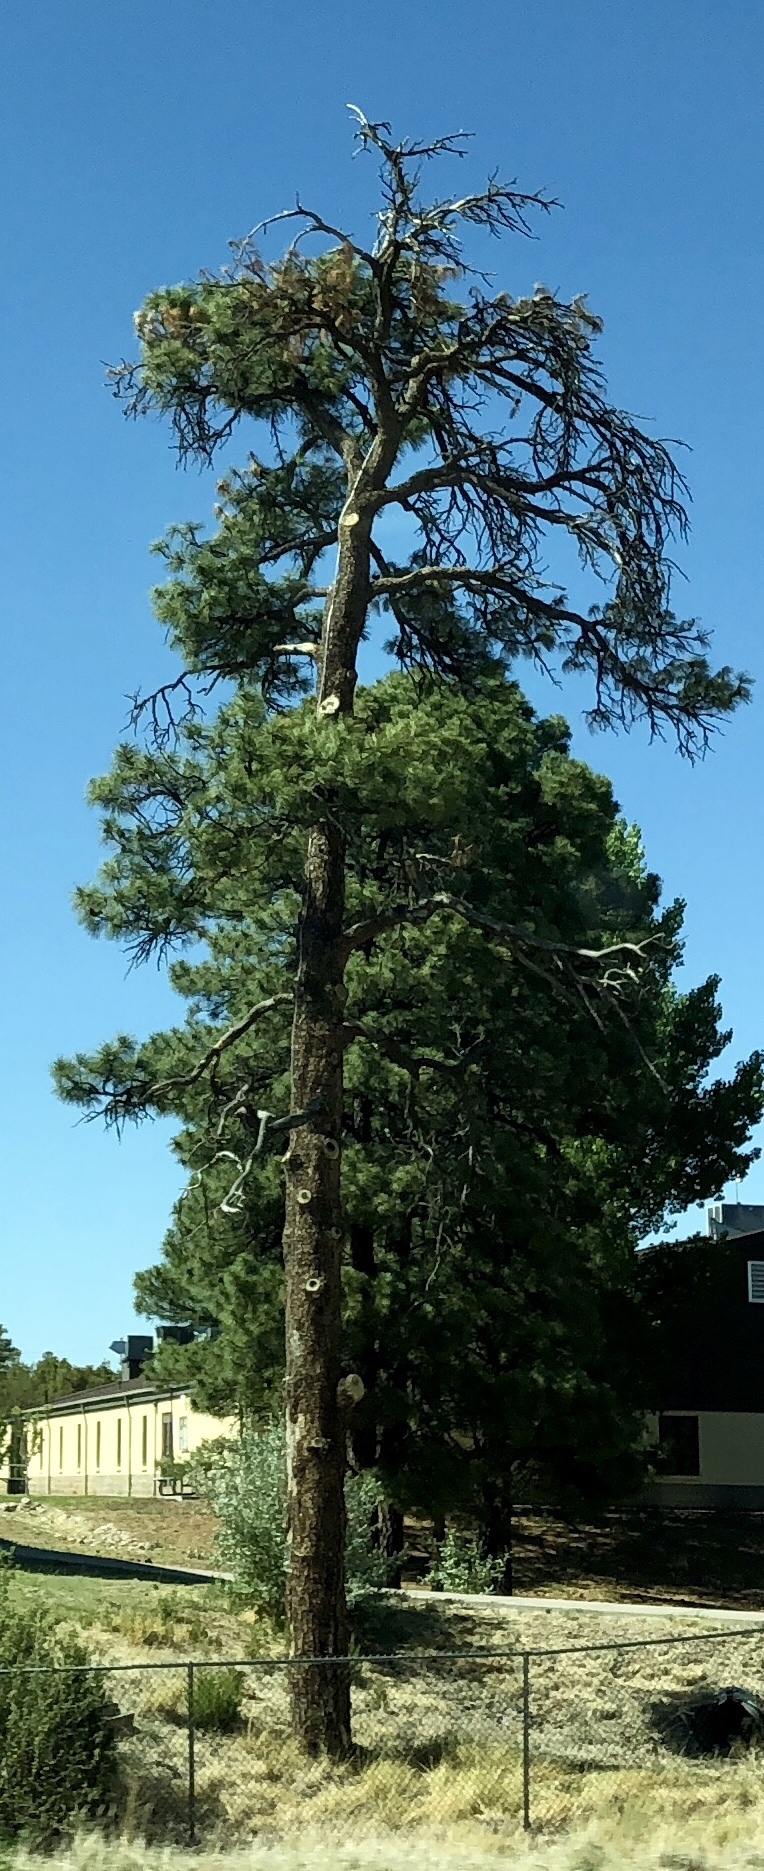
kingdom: Plantae
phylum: Tracheophyta
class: Pinopsida
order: Pinales
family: Pinaceae
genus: Pinus
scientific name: Pinus ponderosa
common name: Western yellow-pine
